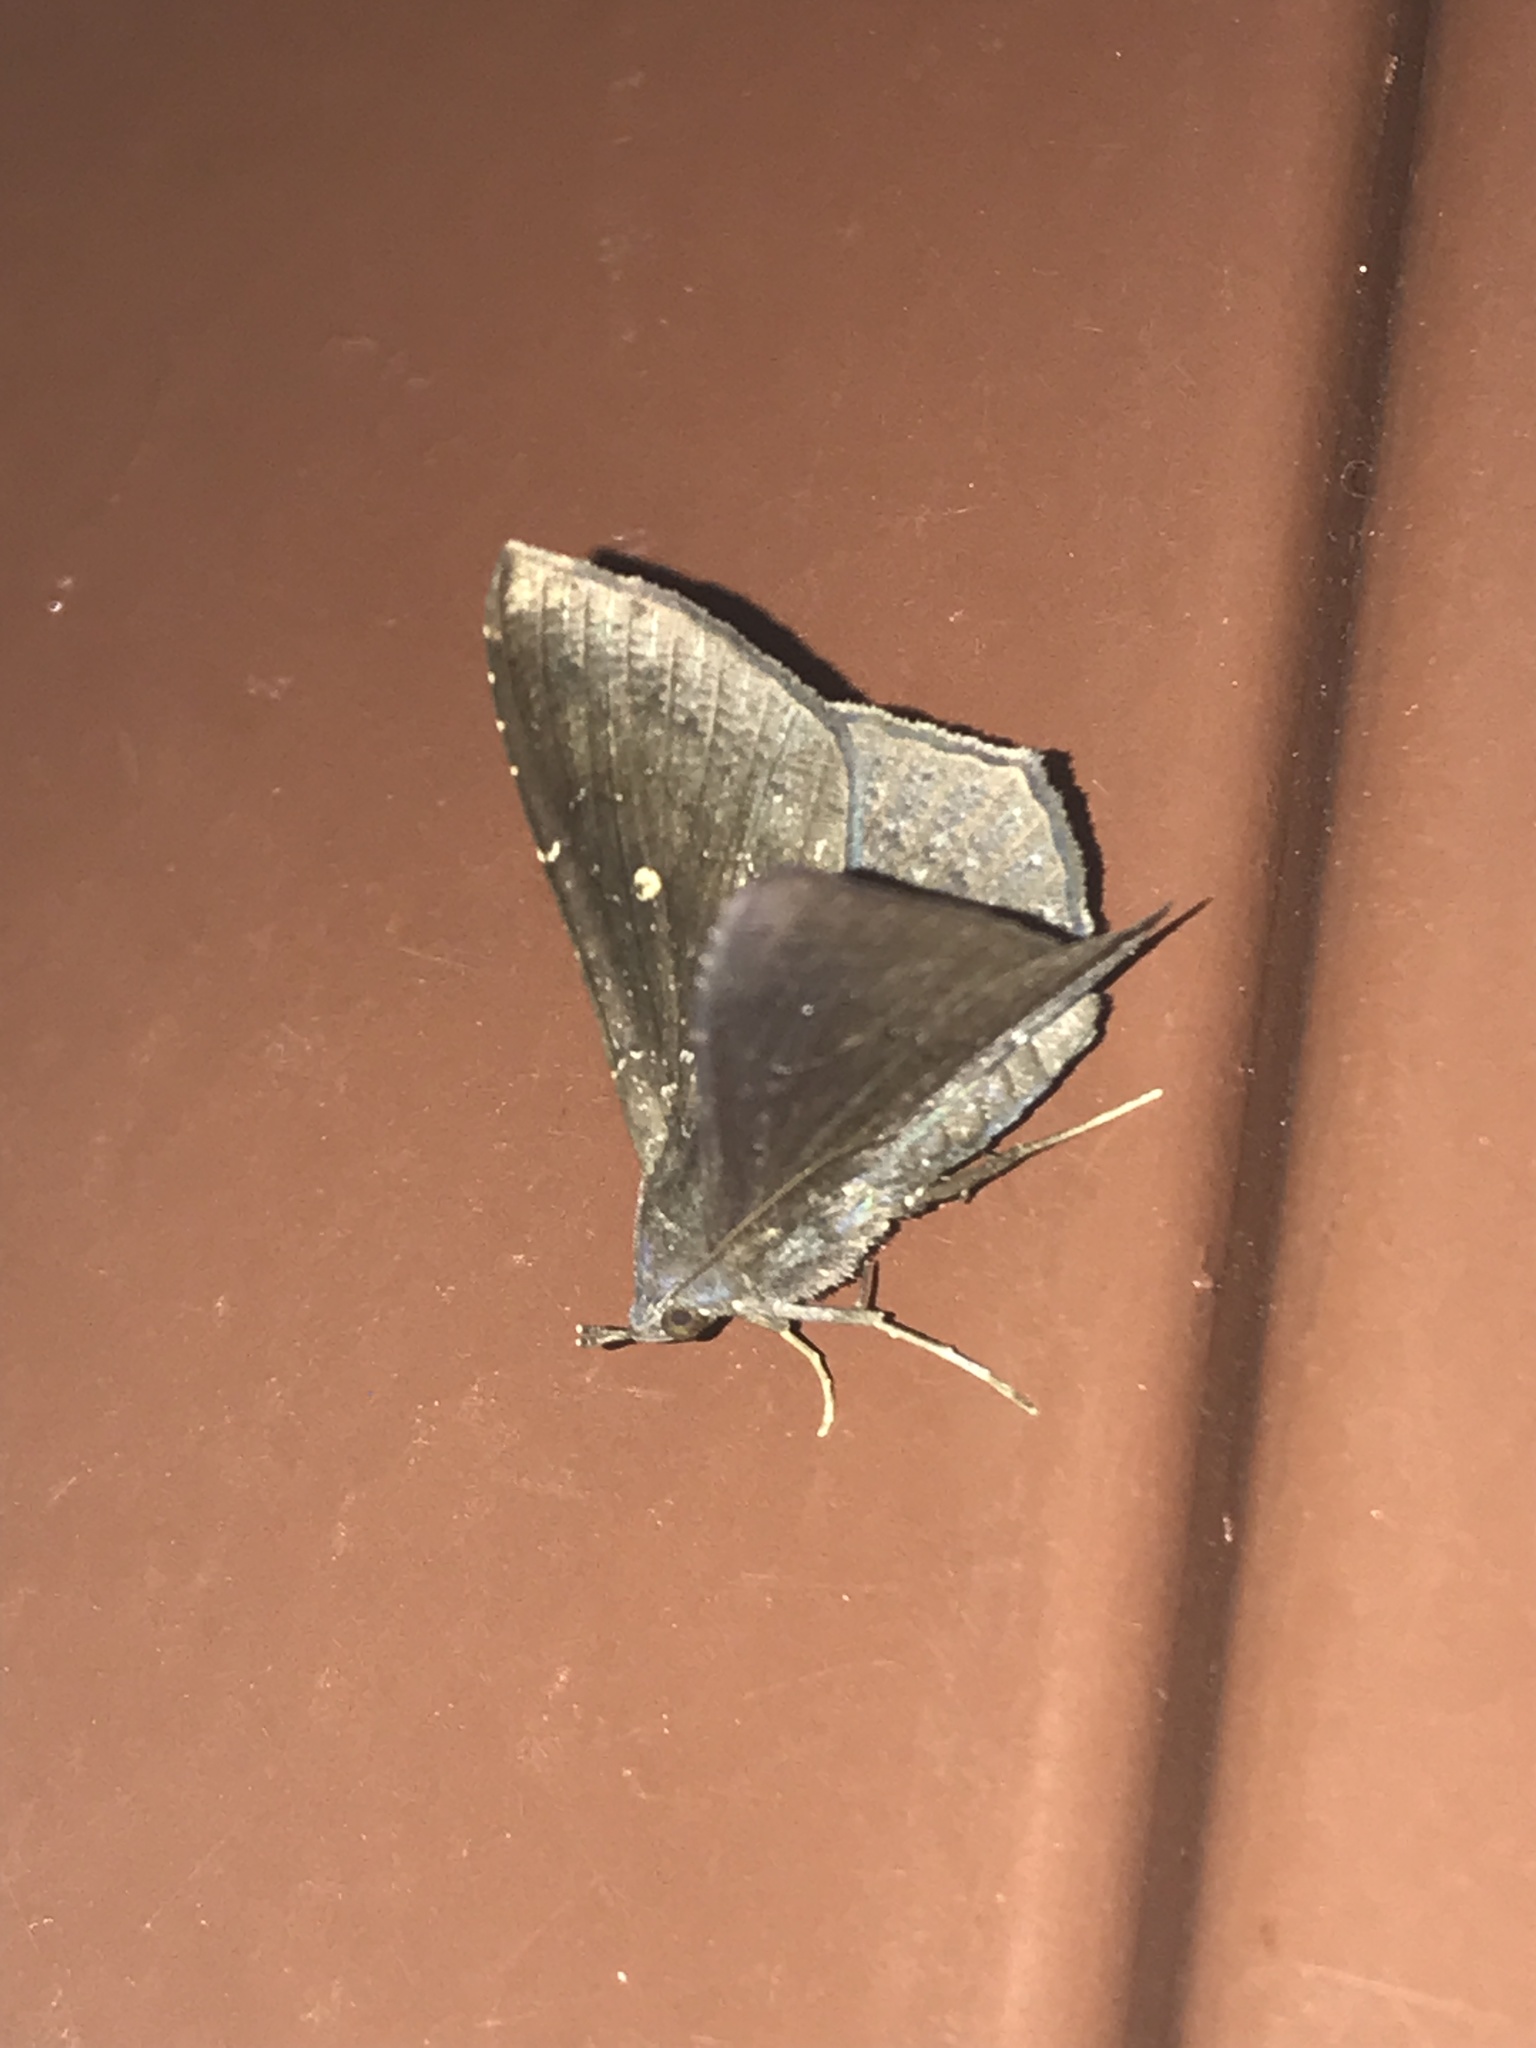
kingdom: Animalia
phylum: Arthropoda
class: Insecta
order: Lepidoptera
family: Erebidae
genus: Euclystis
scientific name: Euclystis deterrima
